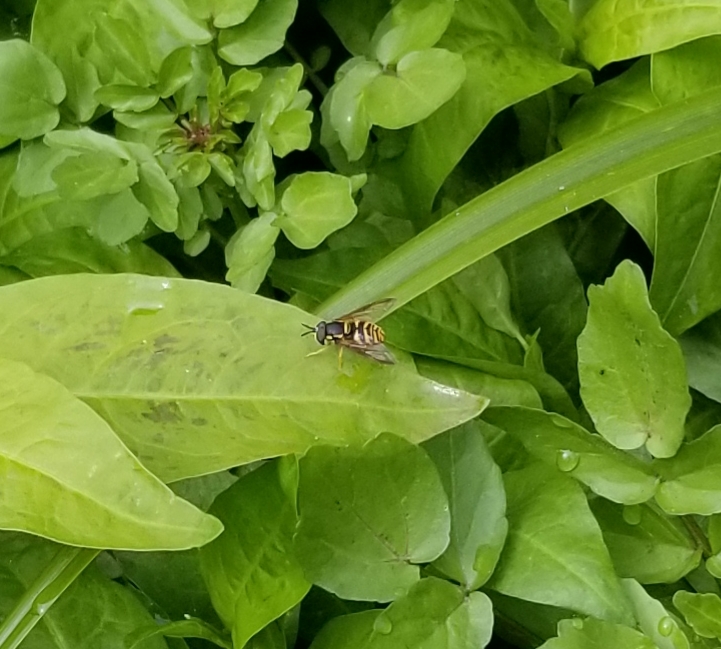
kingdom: Animalia
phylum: Arthropoda
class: Insecta
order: Diptera
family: Syrphidae
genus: Chrysotoxum
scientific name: Chrysotoxum
